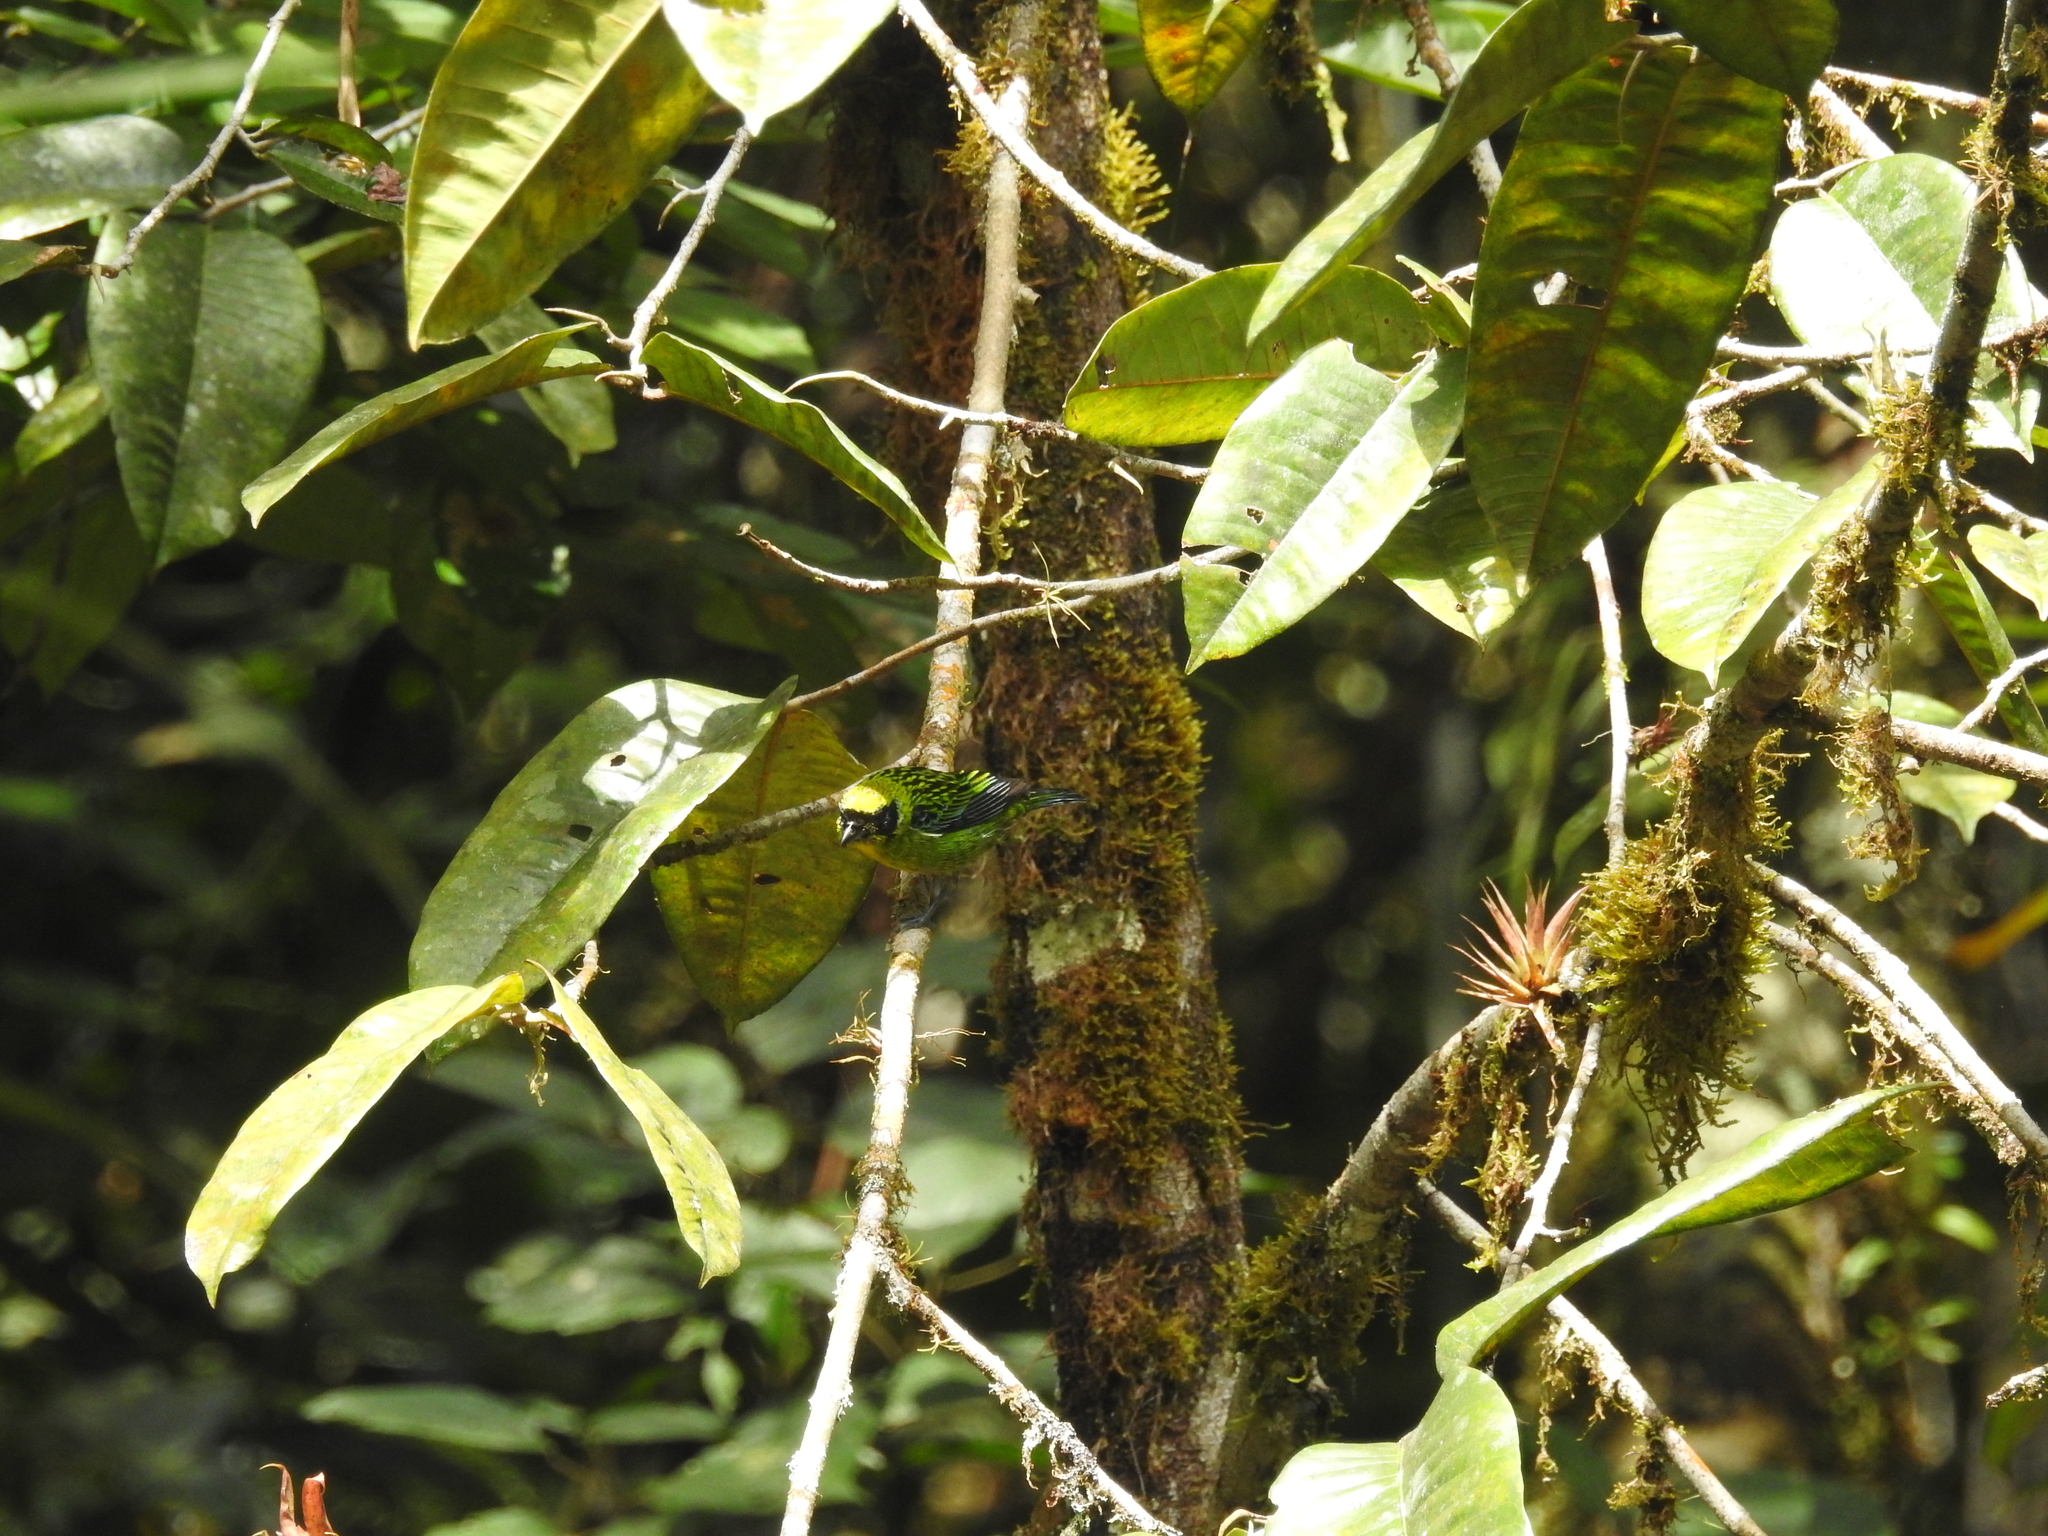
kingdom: Animalia
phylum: Chordata
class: Aves
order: Passeriformes
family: Thraupidae
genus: Tangara
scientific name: Tangara schrankii
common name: Green-and-gold tanager
